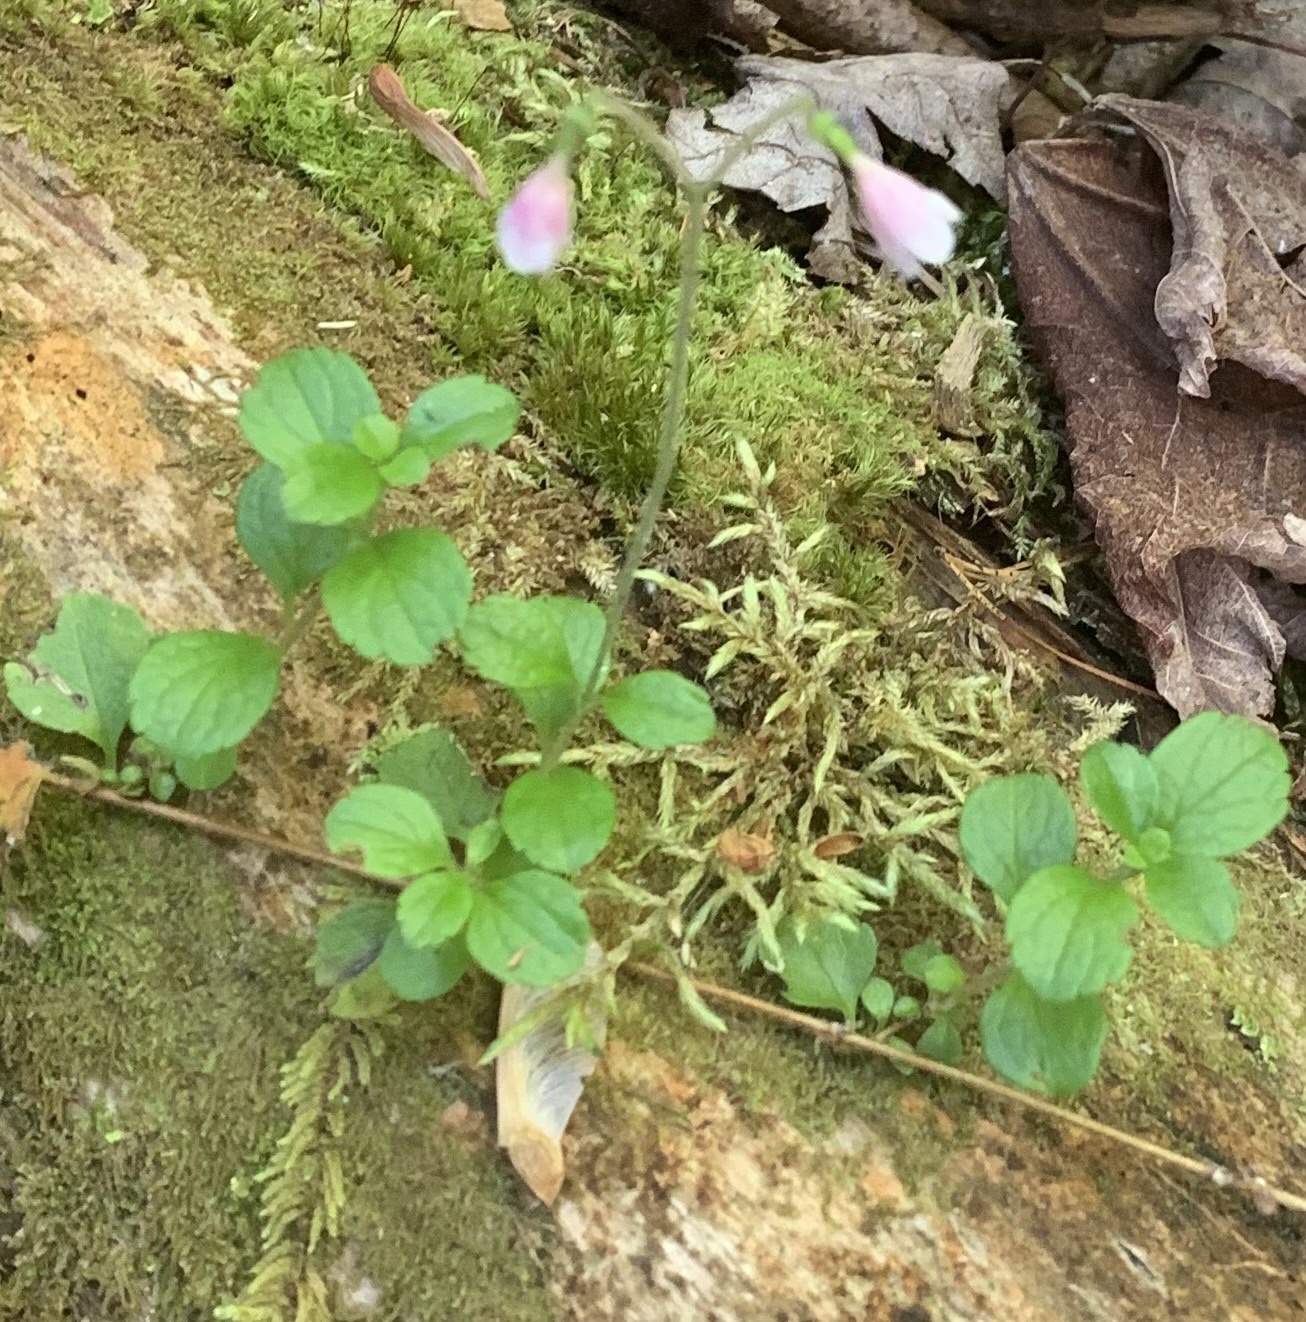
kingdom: Plantae
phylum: Tracheophyta
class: Magnoliopsida
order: Dipsacales
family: Caprifoliaceae
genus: Linnaea
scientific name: Linnaea borealis
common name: Twinflower
